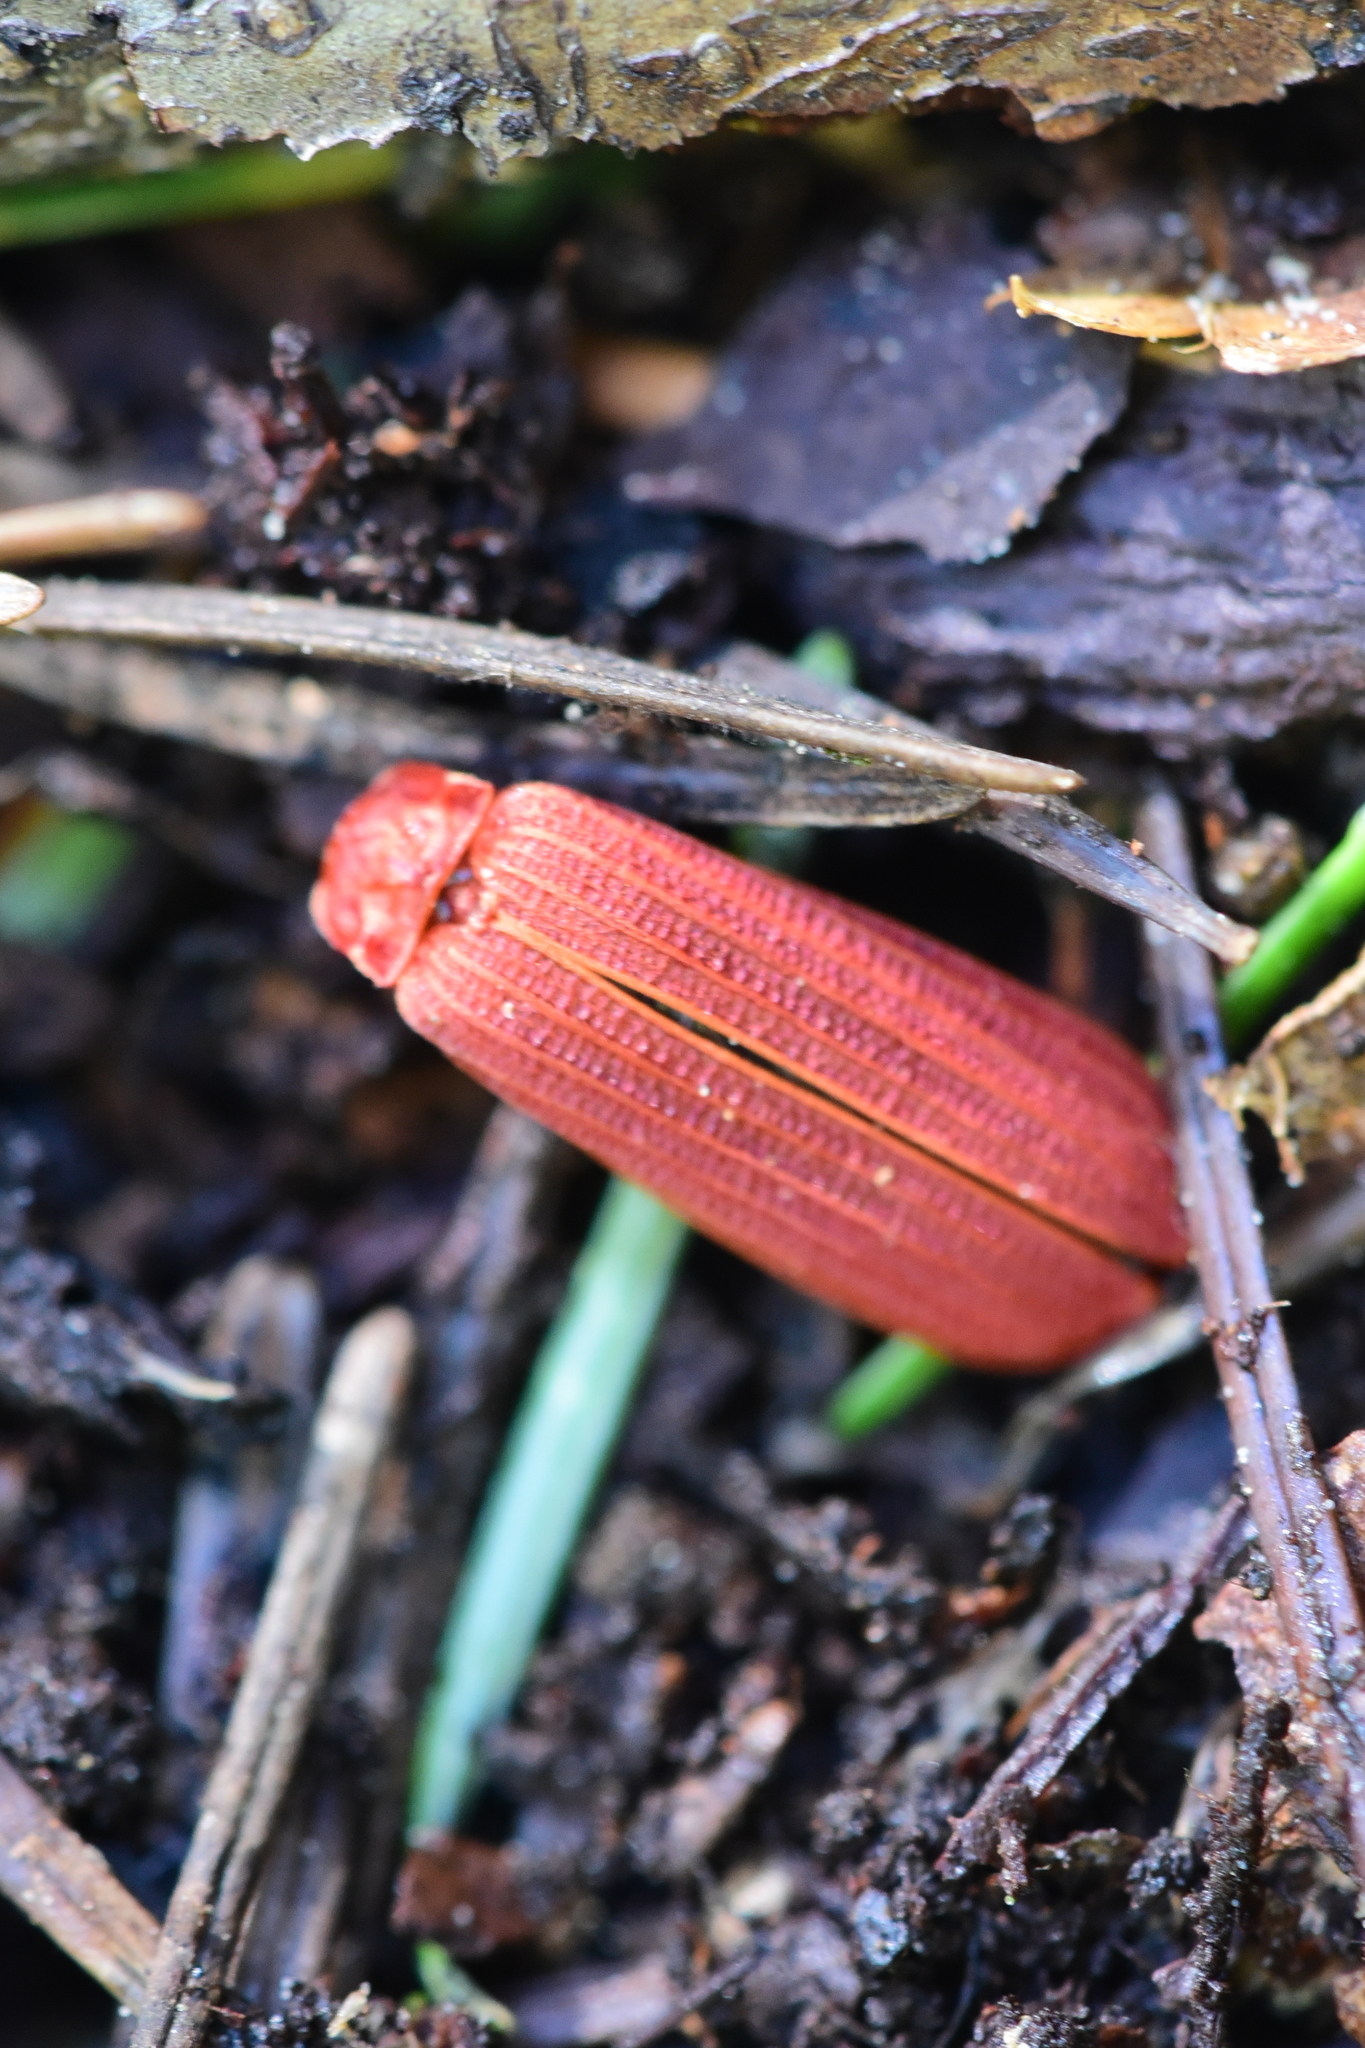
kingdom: Animalia
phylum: Arthropoda
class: Insecta
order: Coleoptera
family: Lycidae
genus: Punicealis
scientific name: Punicealis hamata
